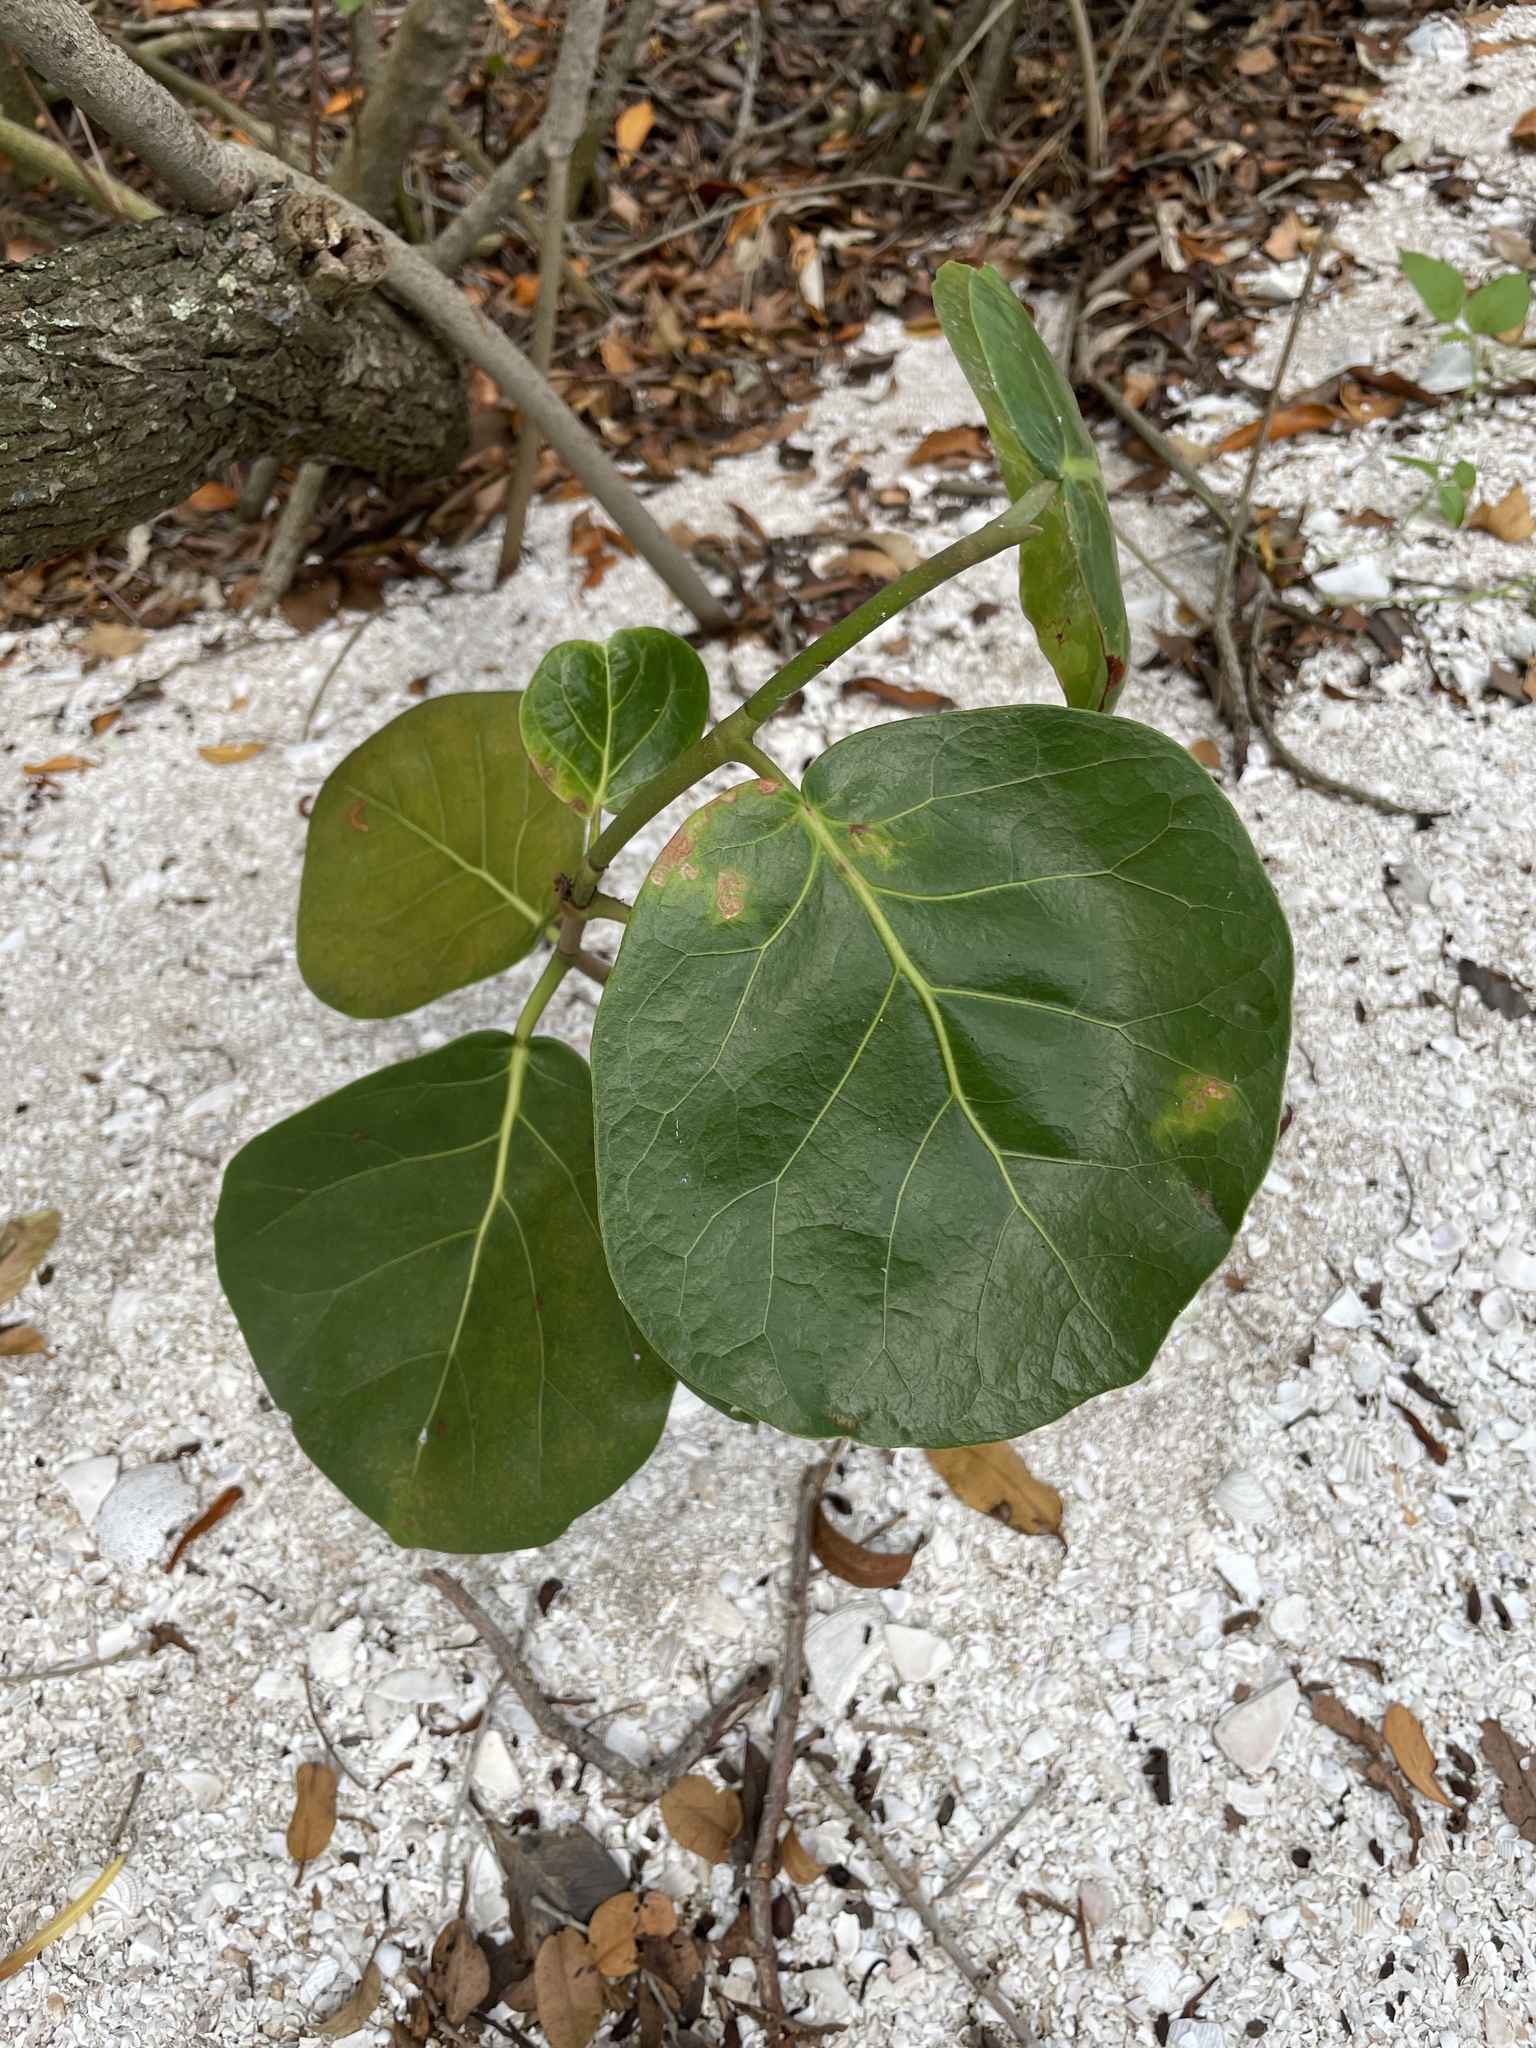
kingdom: Plantae
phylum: Tracheophyta
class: Magnoliopsida
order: Caryophyllales
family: Polygonaceae
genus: Coccoloba
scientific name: Coccoloba uvifera
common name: Seagrape
